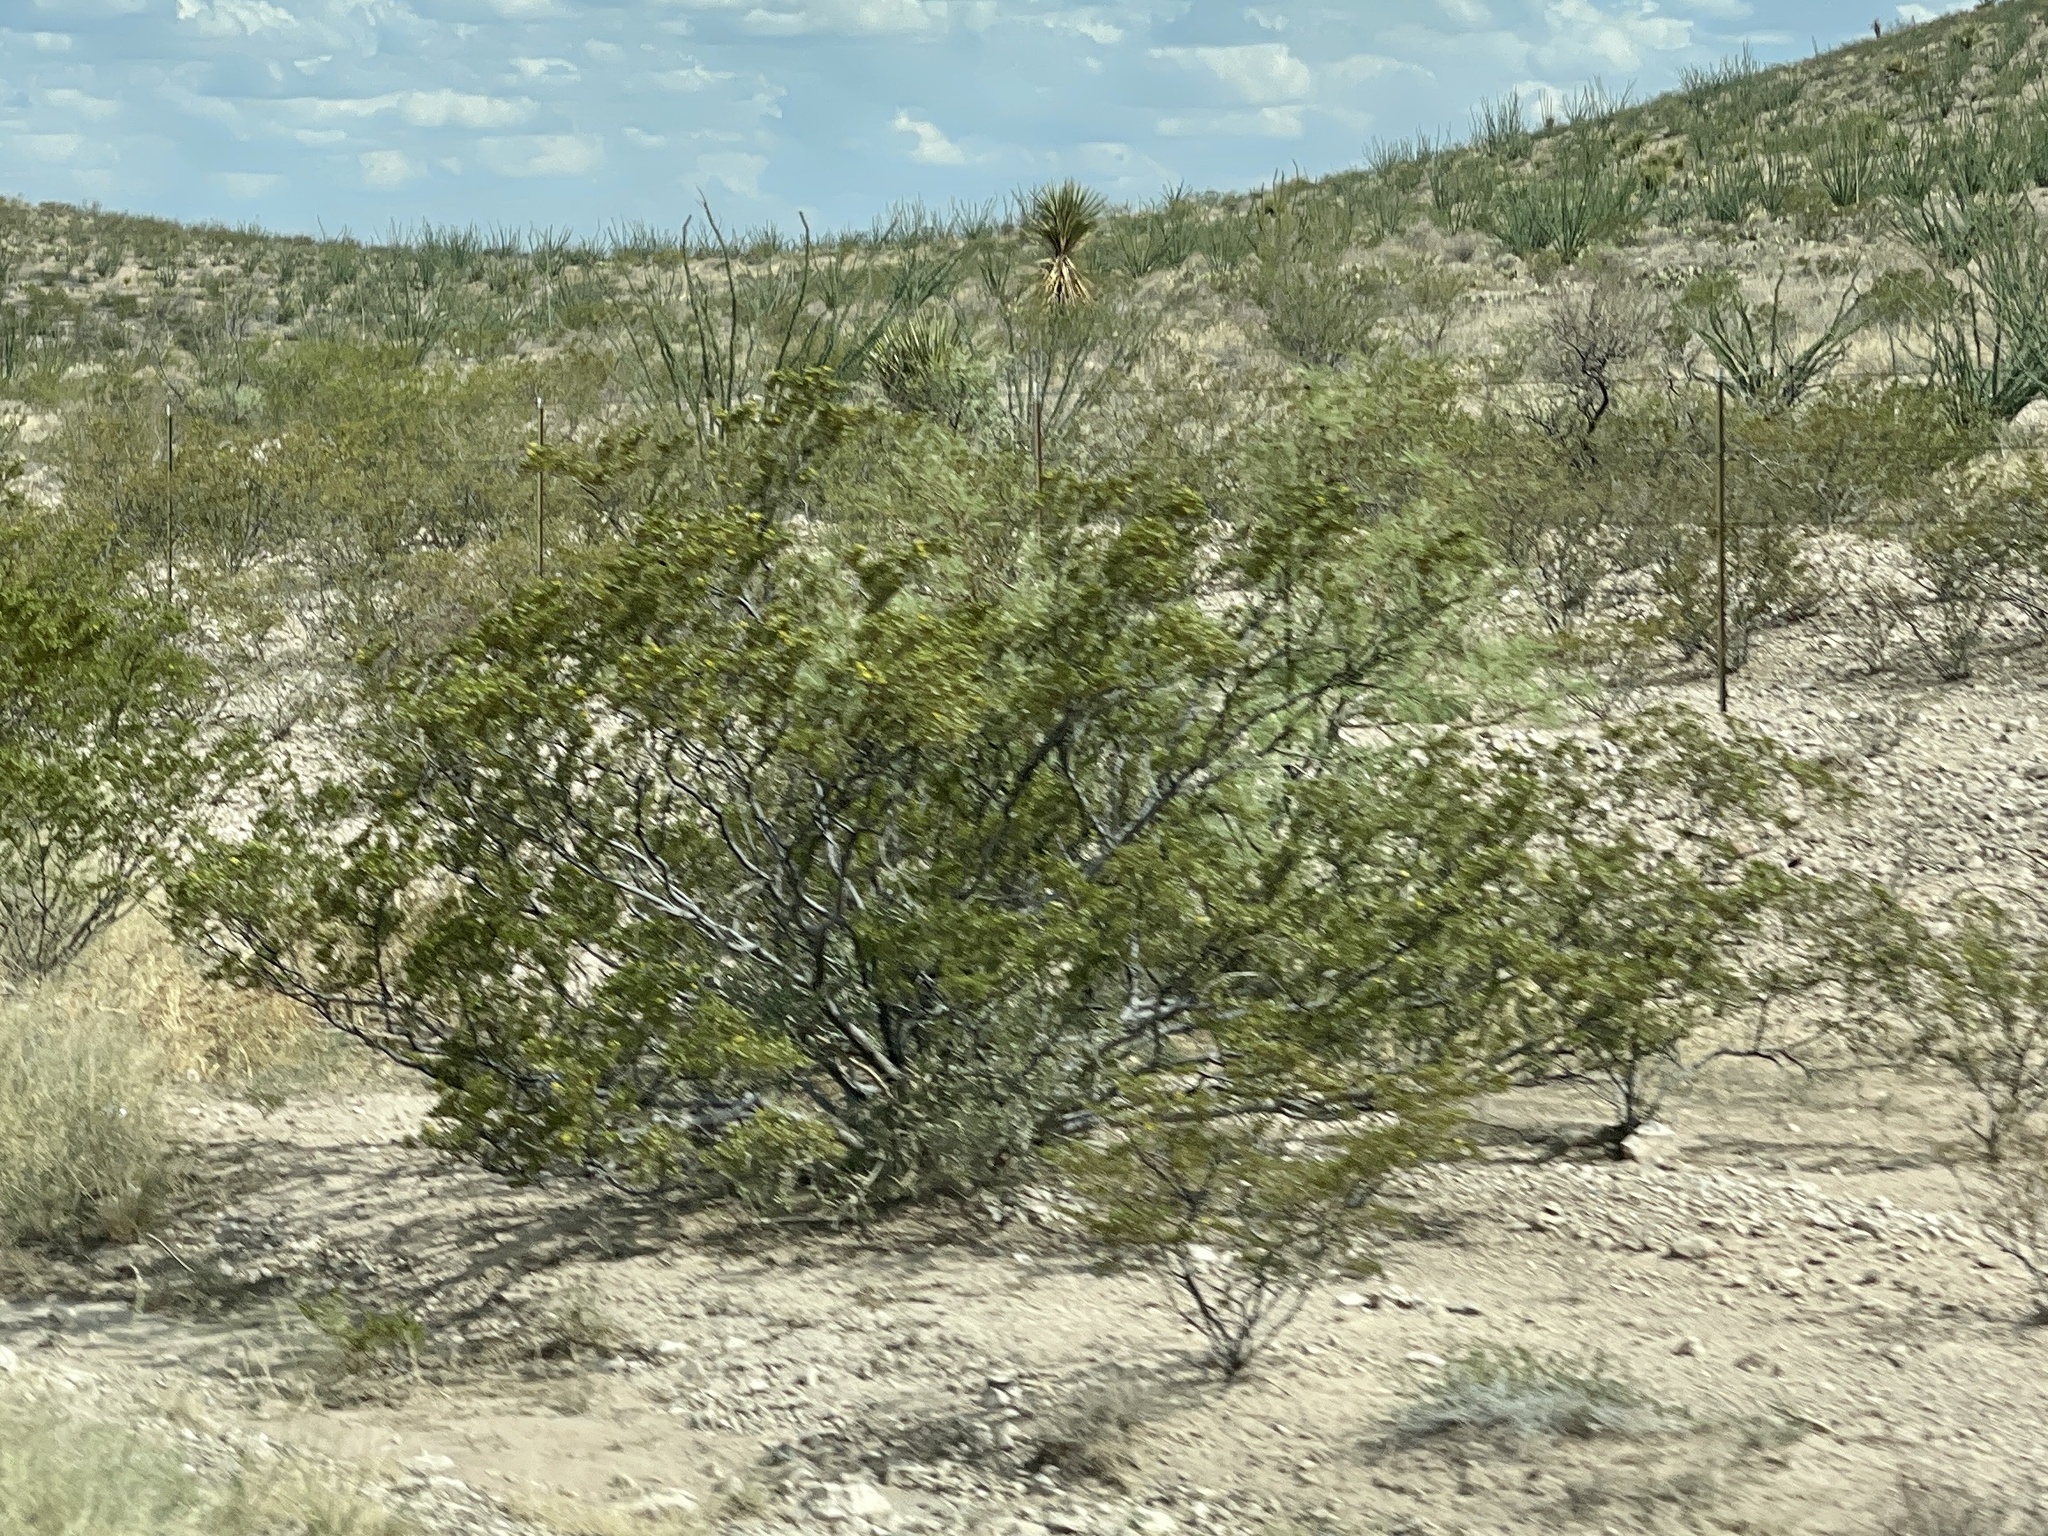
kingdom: Plantae
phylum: Tracheophyta
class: Magnoliopsida
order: Zygophyllales
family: Zygophyllaceae
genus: Larrea
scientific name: Larrea tridentata
